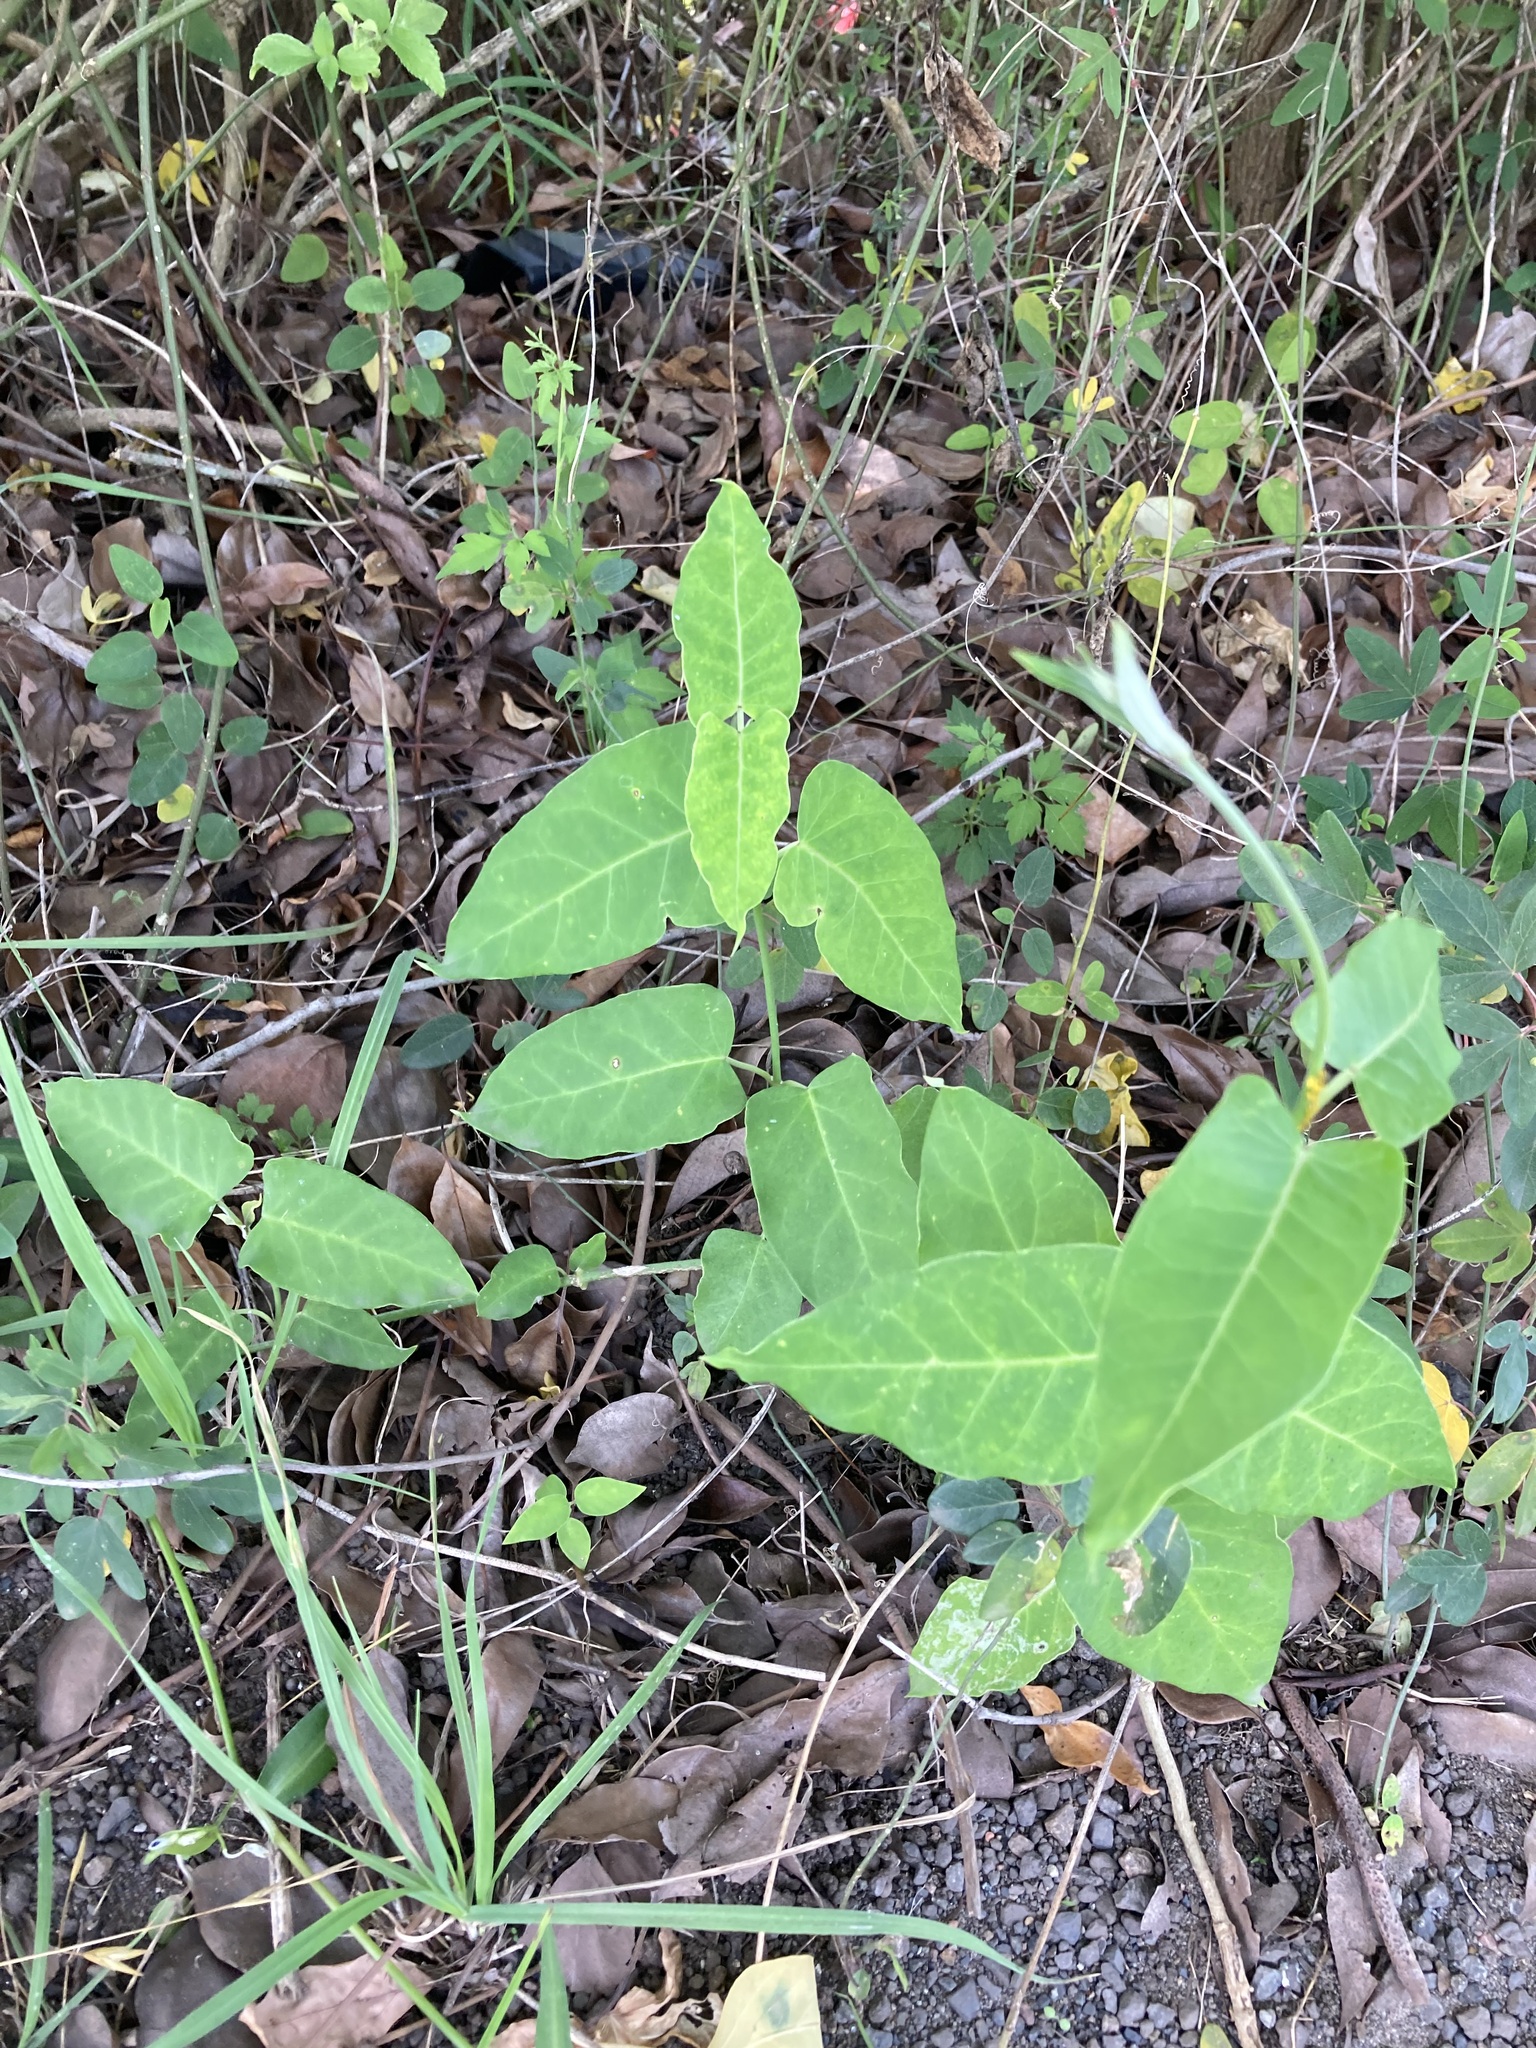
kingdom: Plantae
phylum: Tracheophyta
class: Magnoliopsida
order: Gentianales
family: Apocynaceae
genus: Araujia
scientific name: Araujia sericifera
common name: White bladderflower
